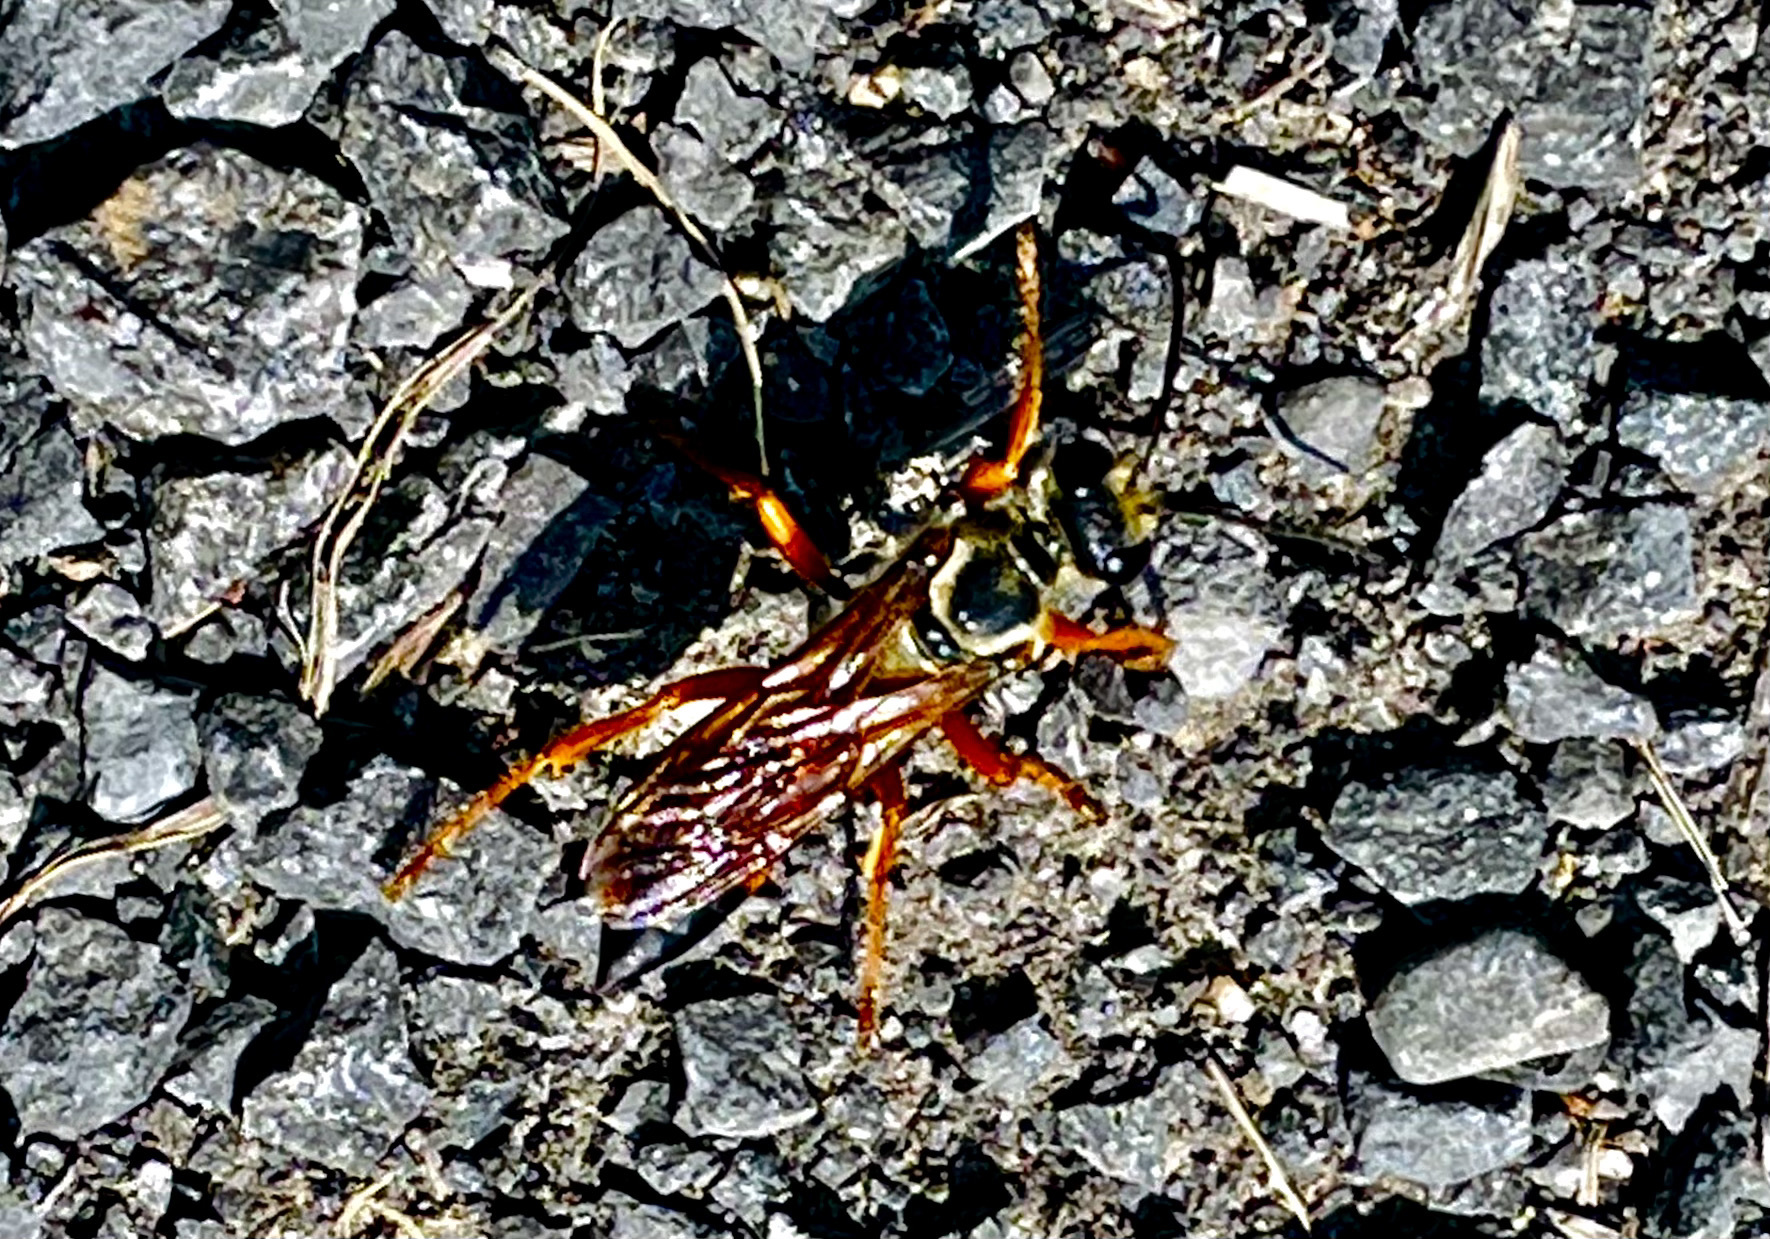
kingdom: Animalia
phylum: Arthropoda
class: Insecta
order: Hymenoptera
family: Sphecidae
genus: Sphex
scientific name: Sphex ichneumoneus
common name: Great golden digger wasp
